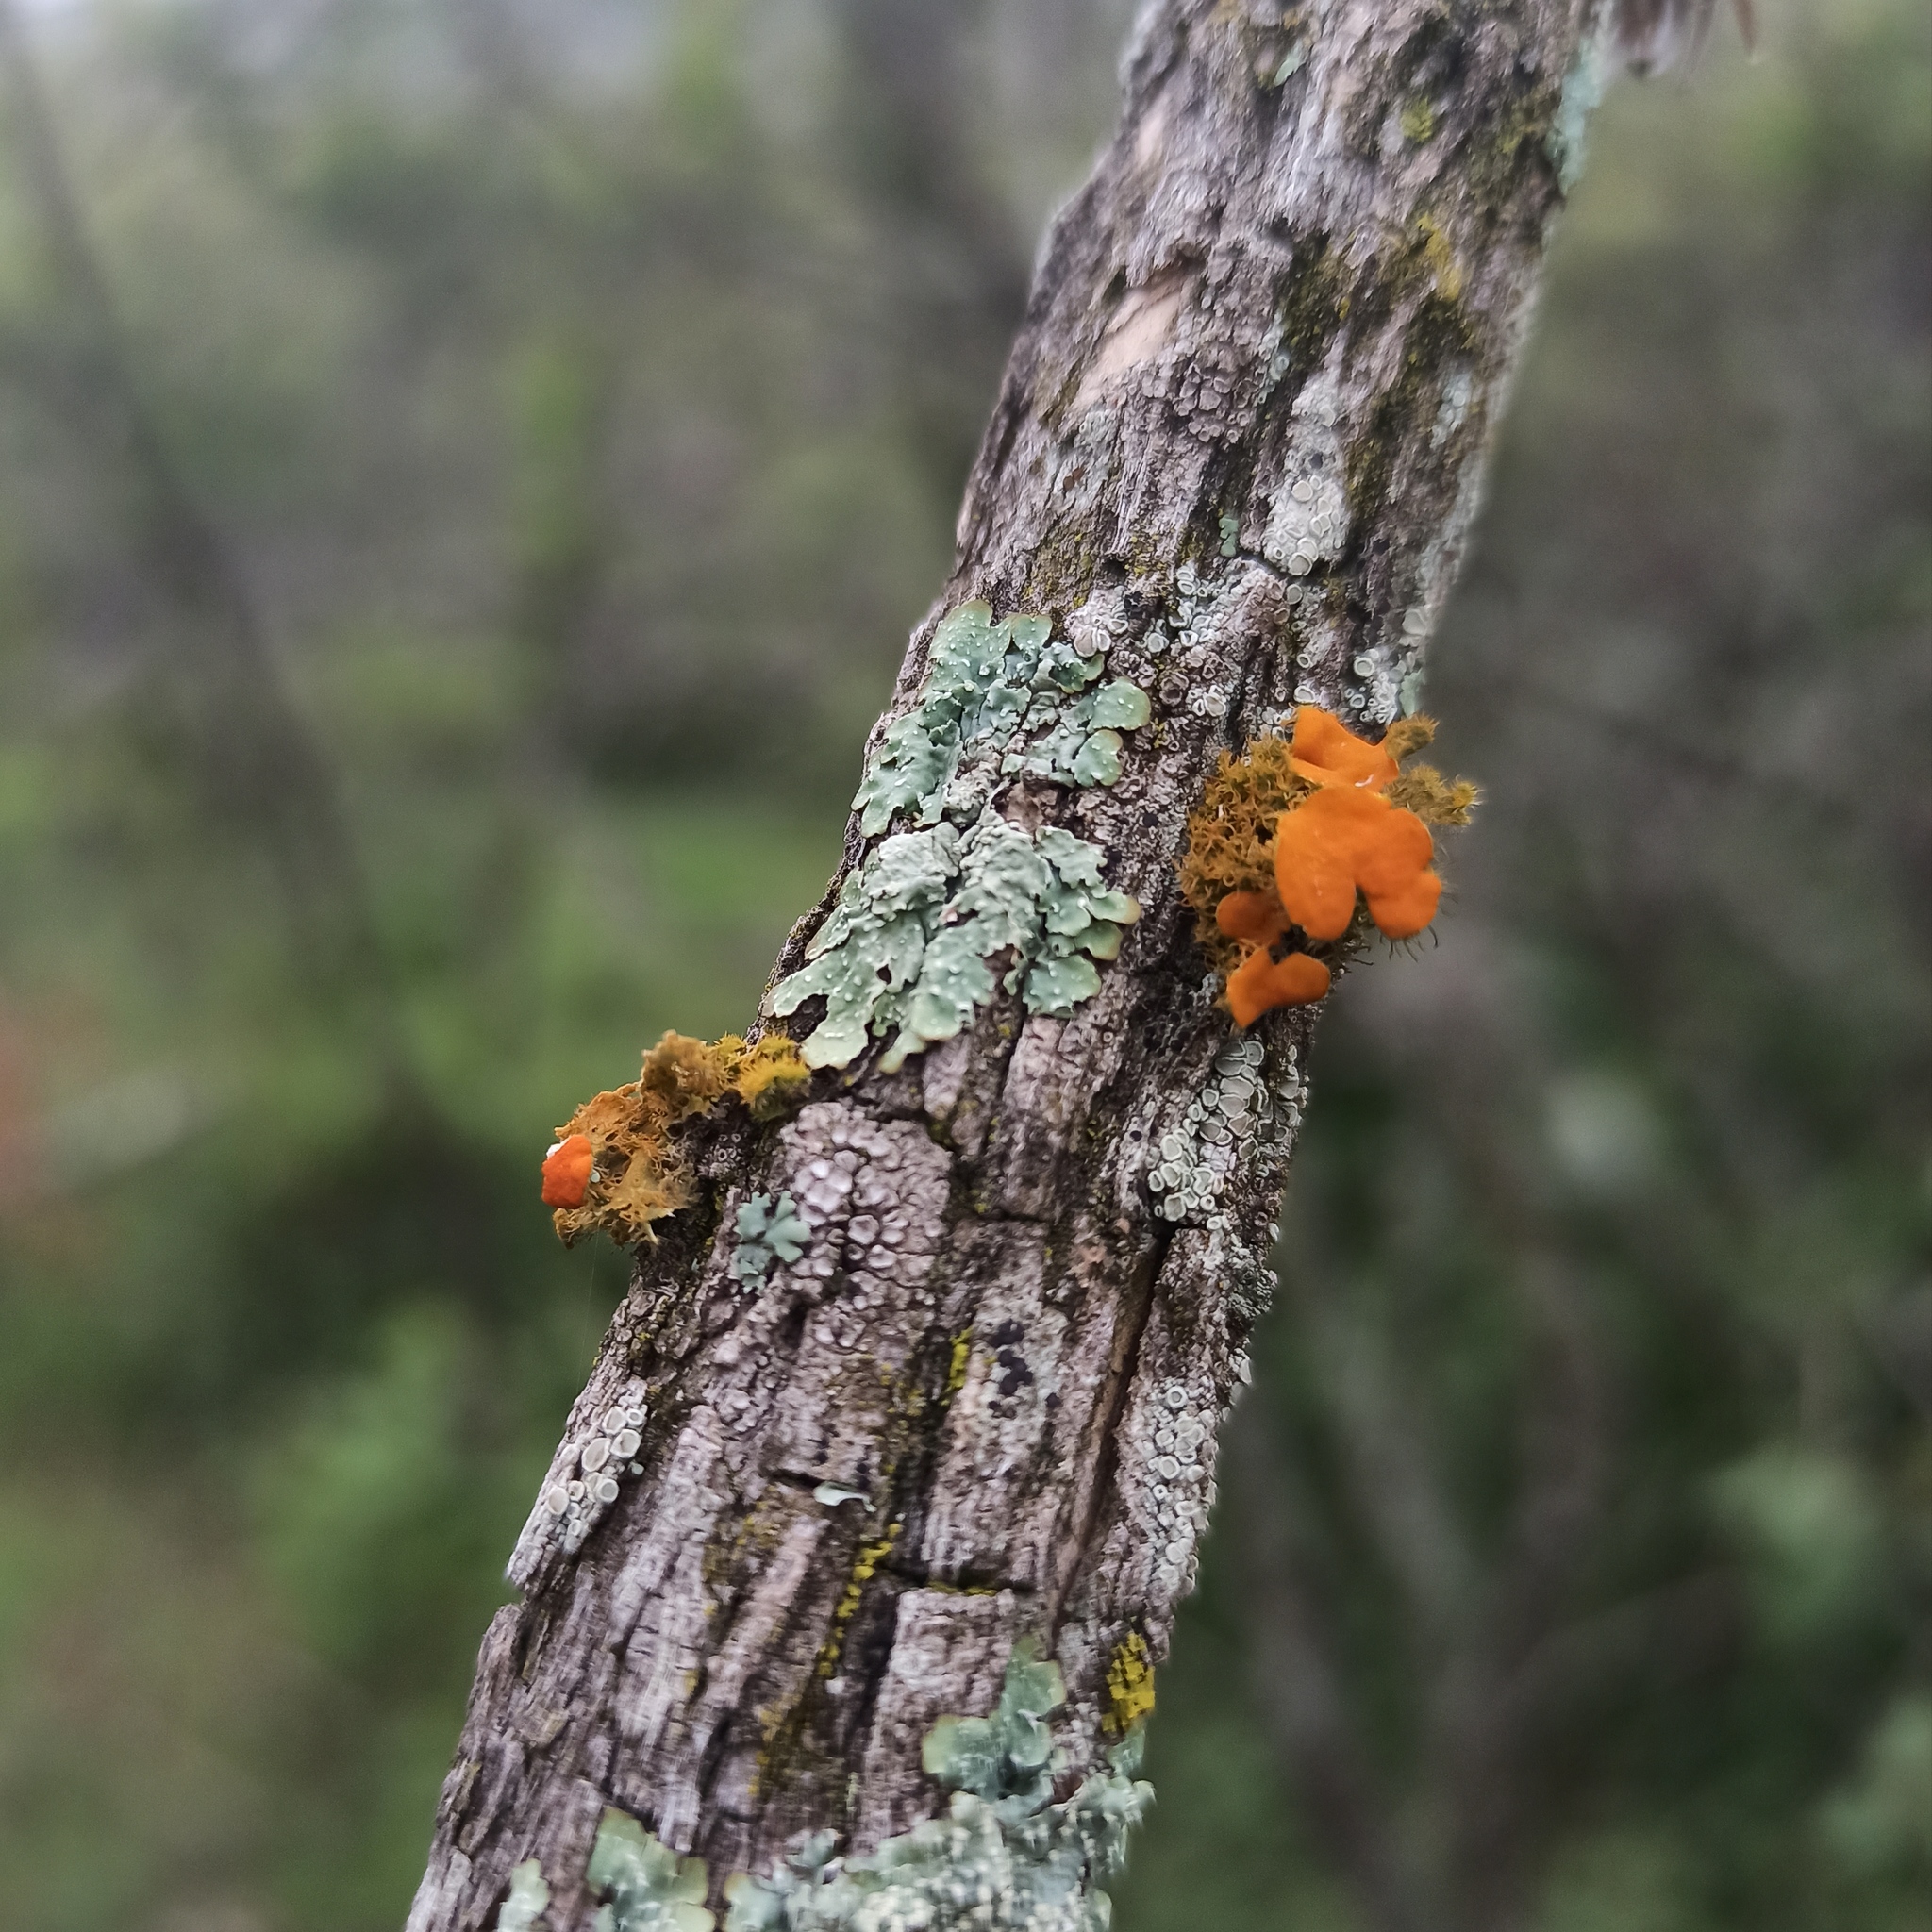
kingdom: Fungi
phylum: Ascomycota
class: Lecanoromycetes
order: Teloschistales
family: Teloschistaceae
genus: Niorma
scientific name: Niorma chrysophthalma
